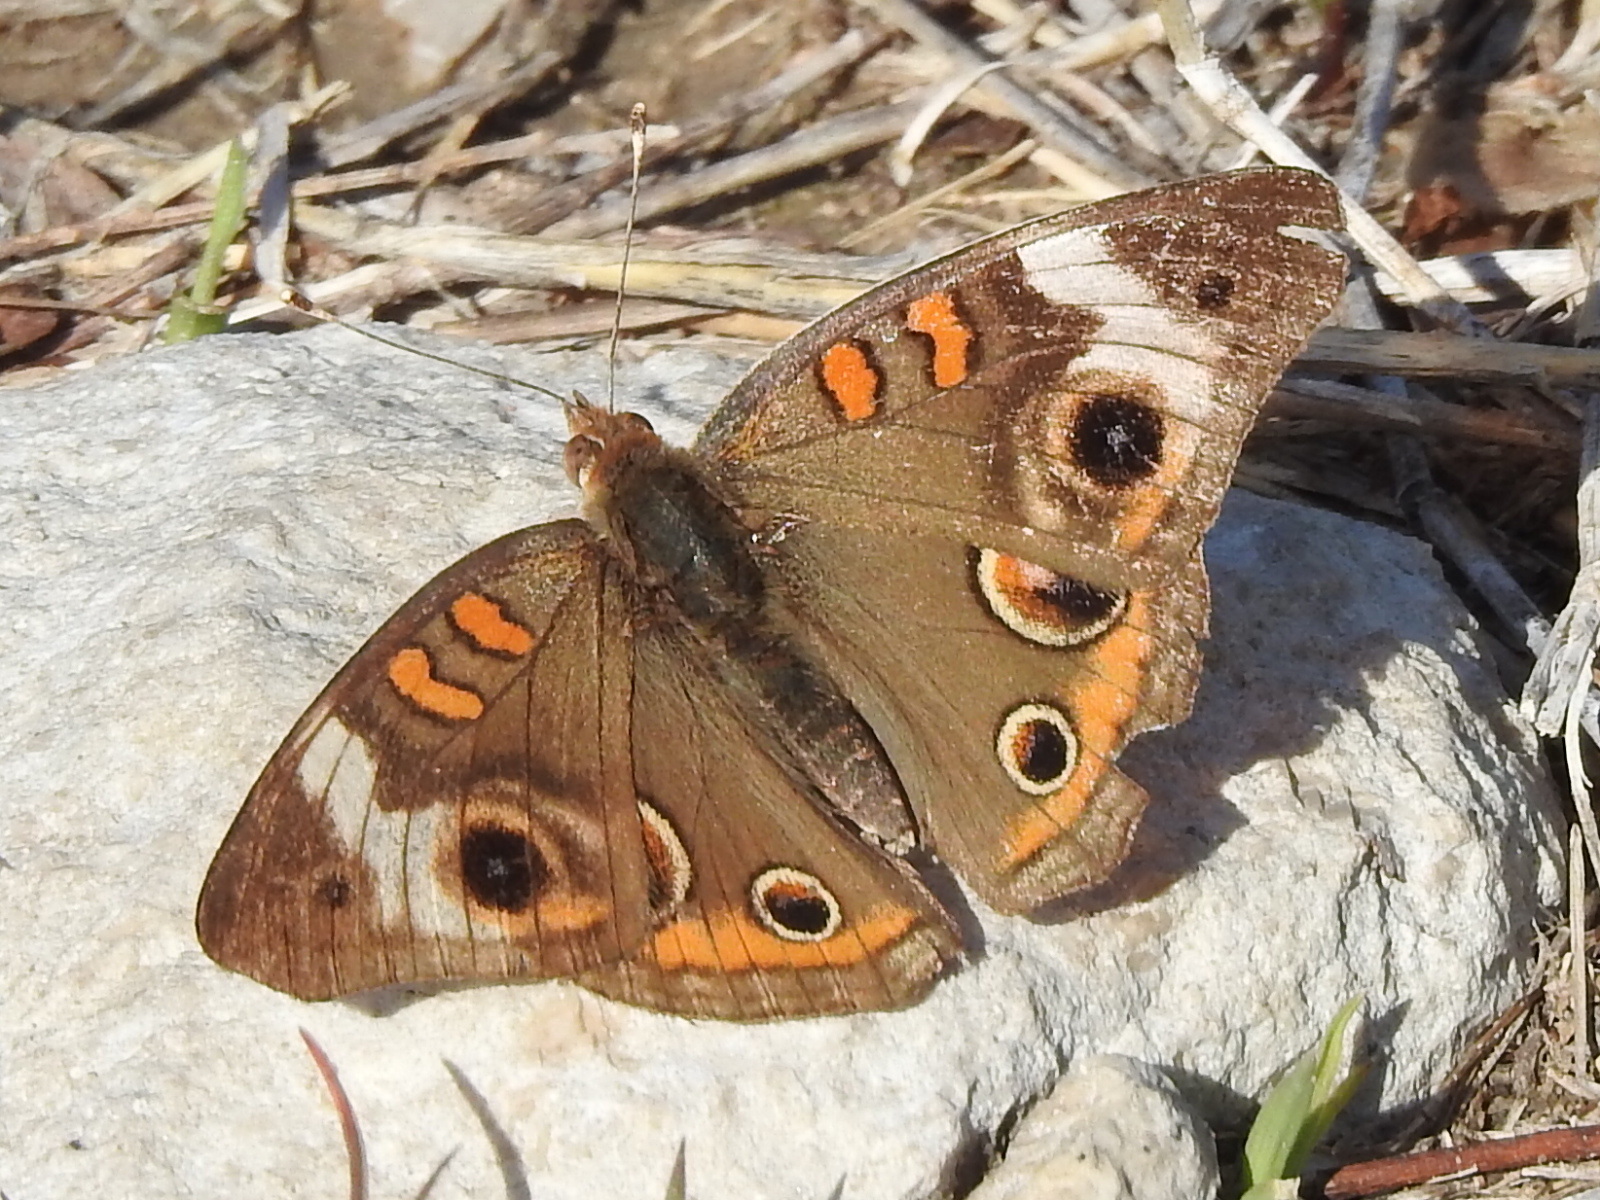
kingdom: Animalia
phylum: Arthropoda
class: Insecta
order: Lepidoptera
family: Nymphalidae
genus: Junonia
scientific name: Junonia coenia
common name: Common buckeye
